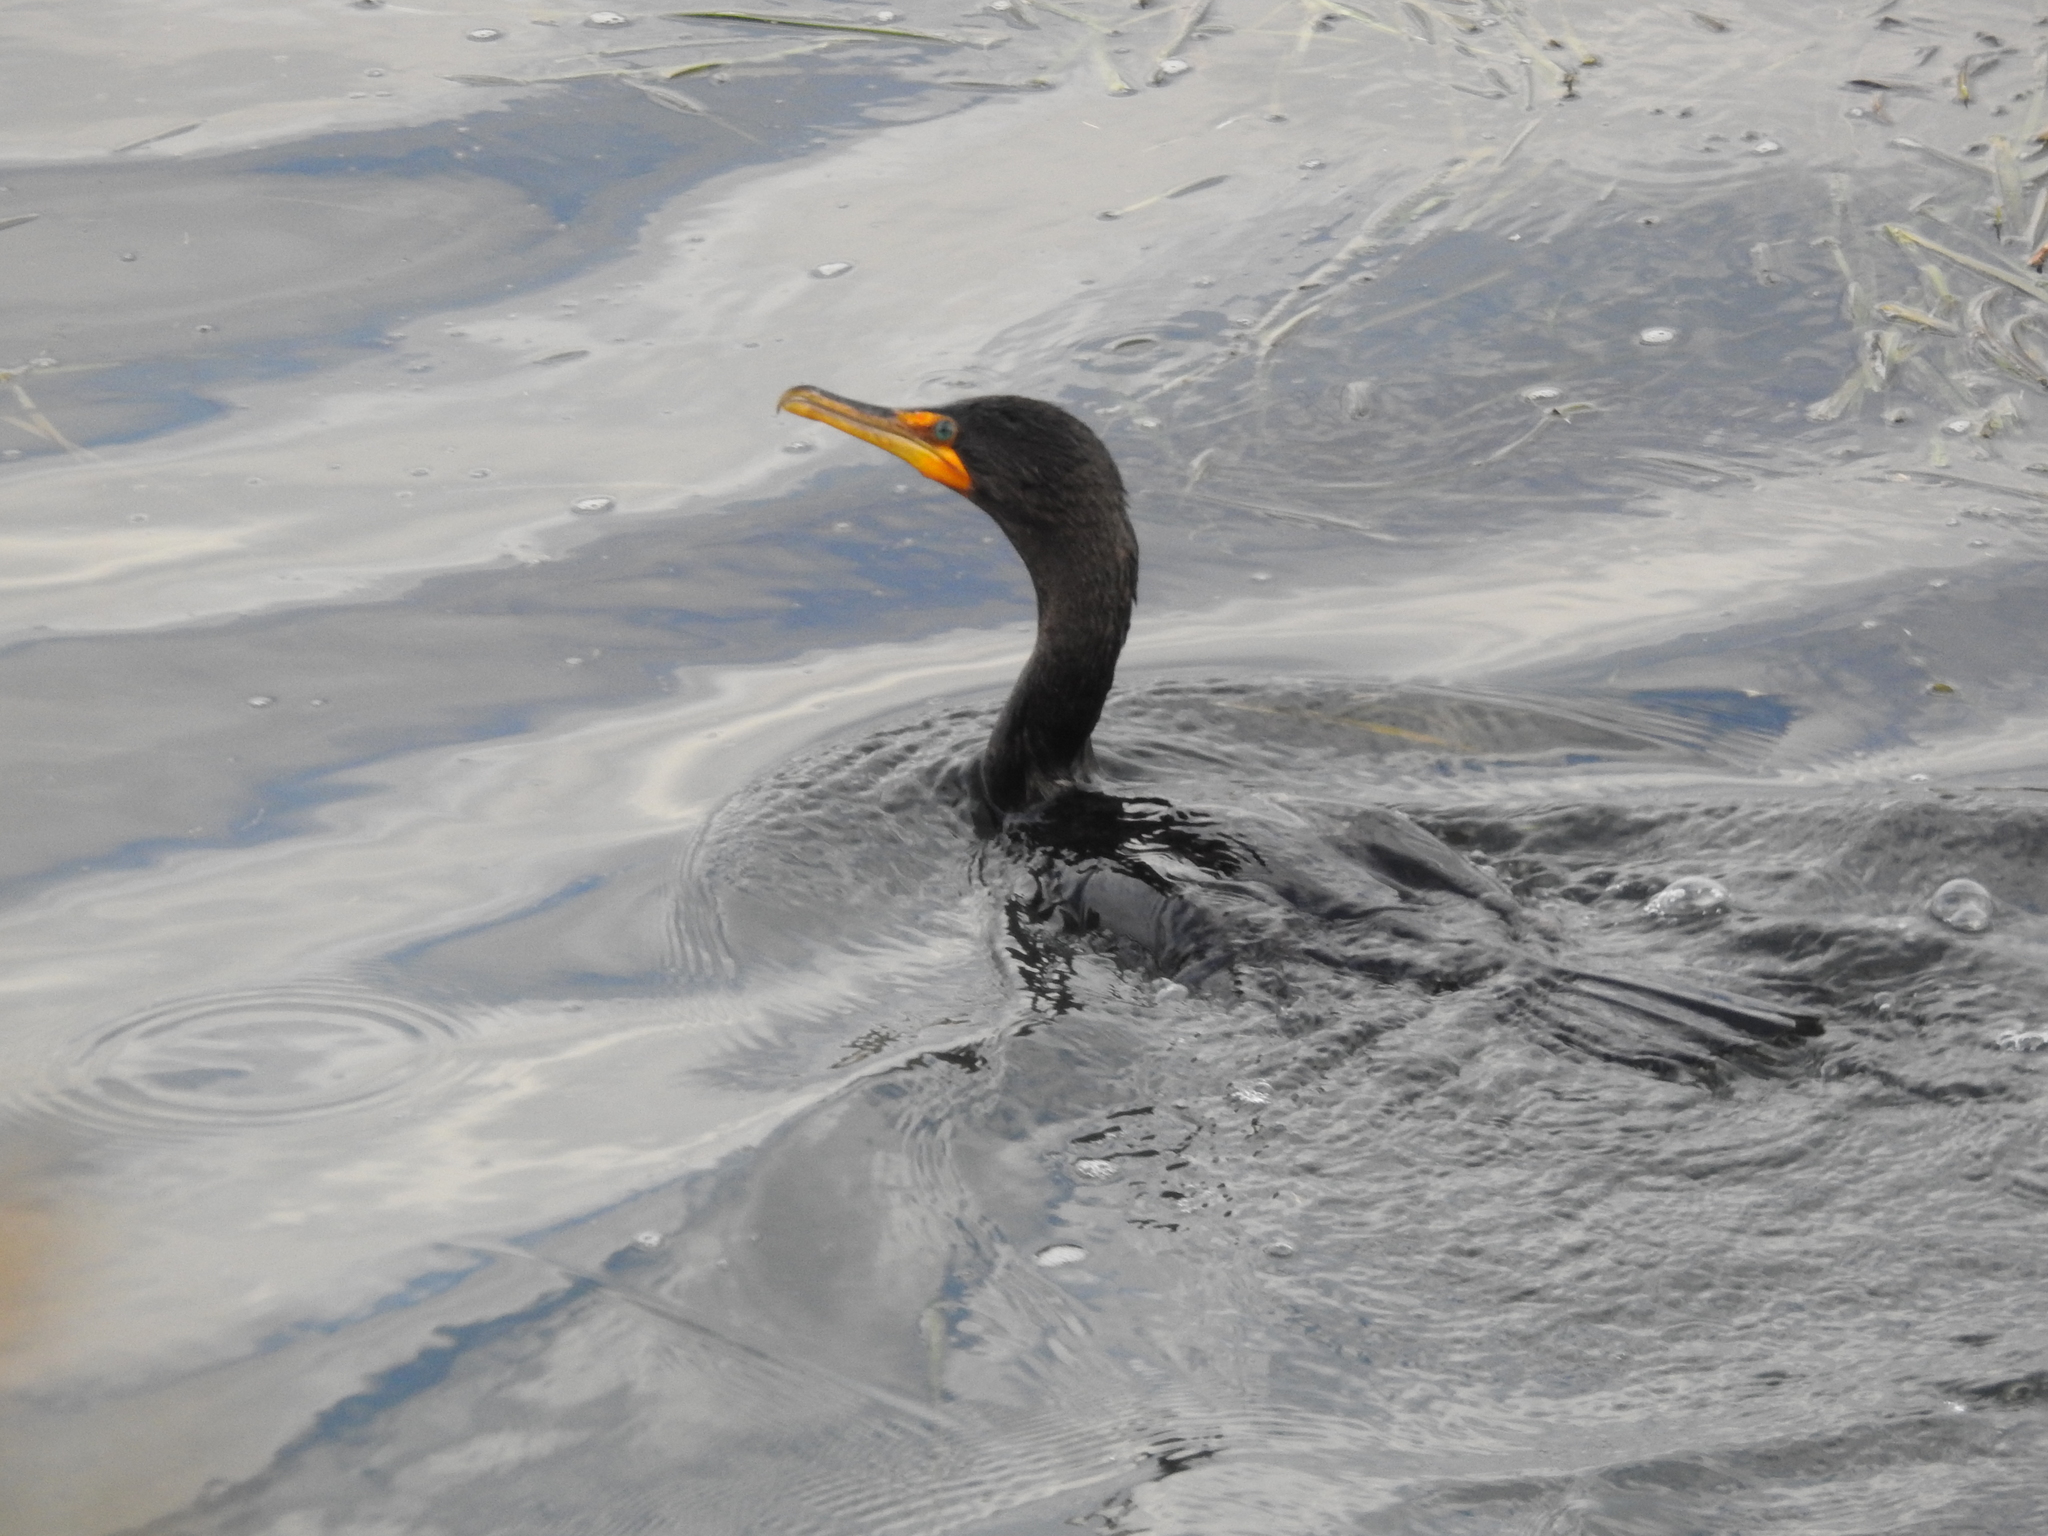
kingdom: Animalia
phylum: Chordata
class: Aves
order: Suliformes
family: Phalacrocoracidae
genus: Phalacrocorax
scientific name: Phalacrocorax auritus
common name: Double-crested cormorant
